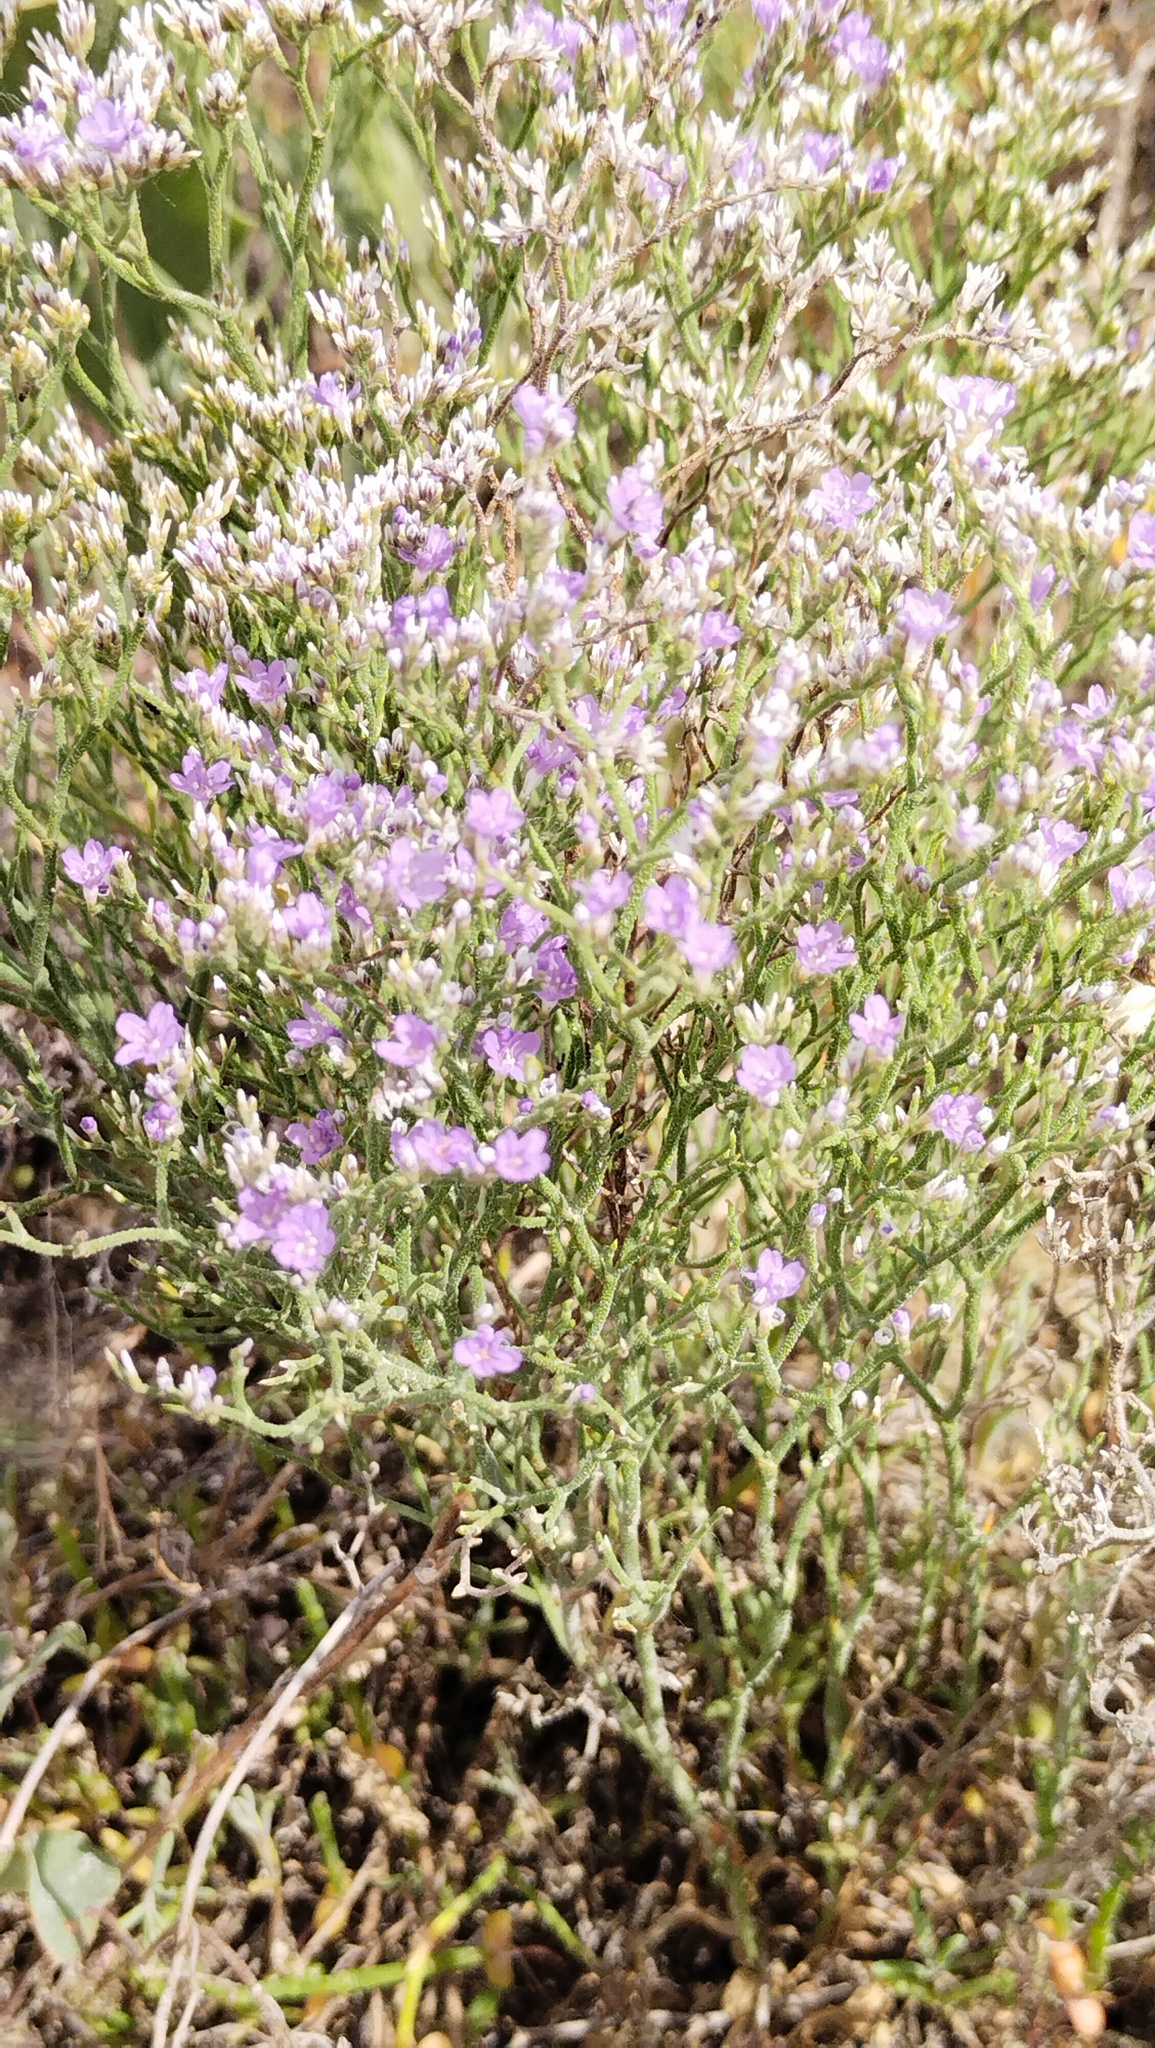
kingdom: Plantae
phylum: Tracheophyta
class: Magnoliopsida
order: Caryophyllales
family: Plumbaginaceae
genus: Limonium
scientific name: Limonium bellidifolium
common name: Matted sea-lavender
